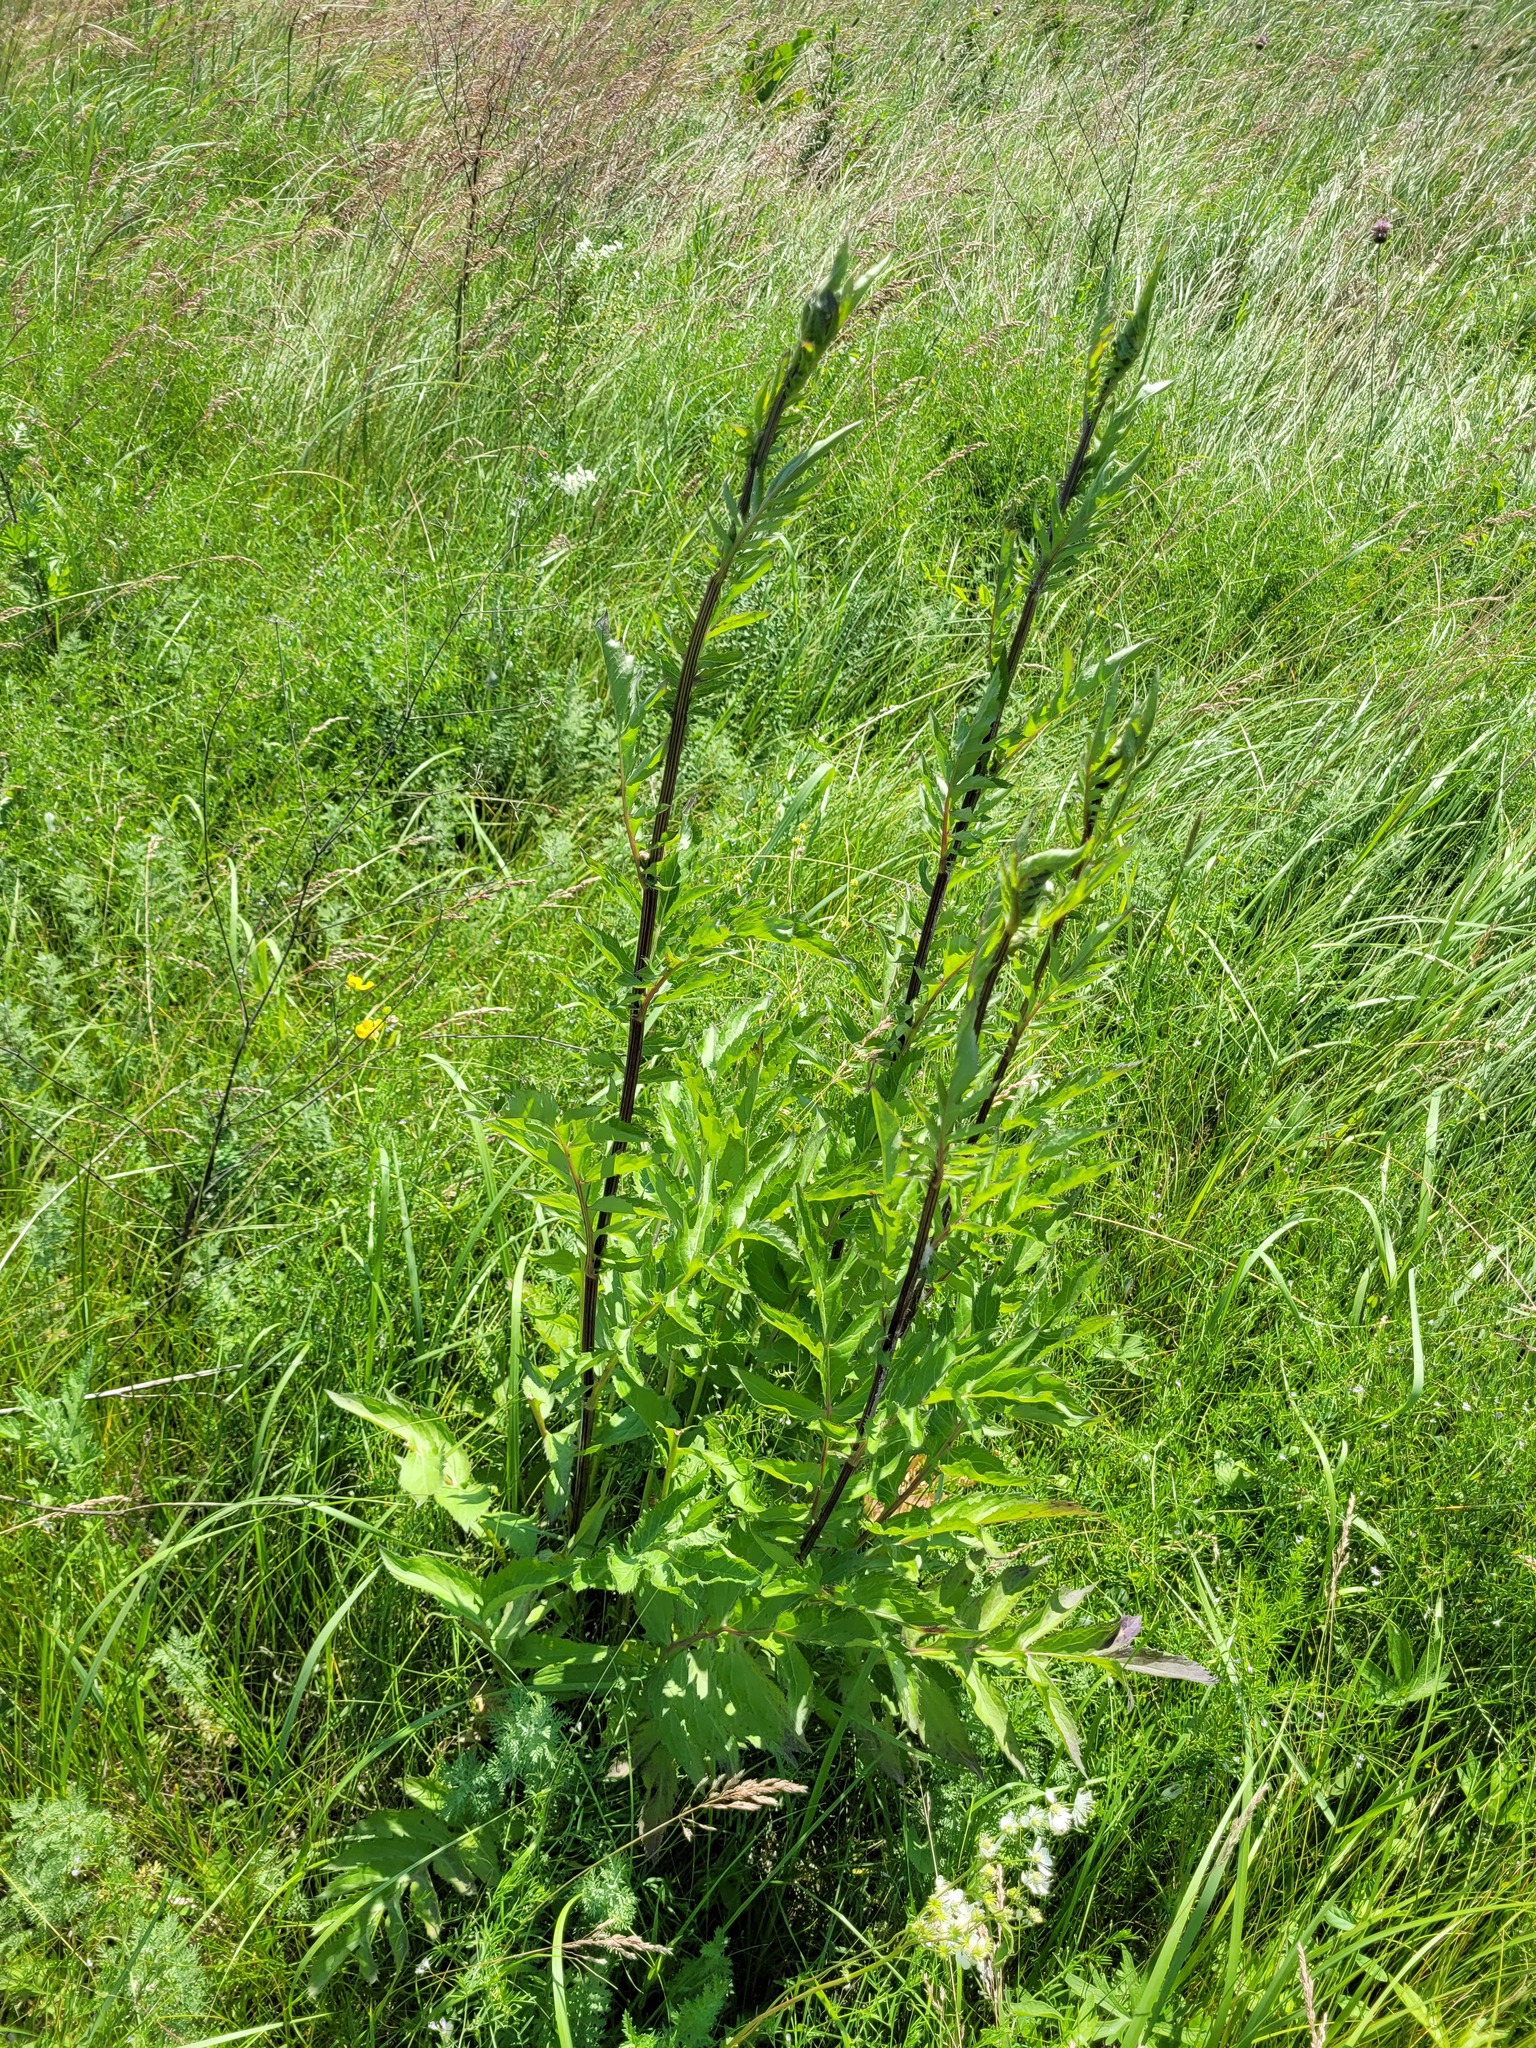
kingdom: Plantae
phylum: Tracheophyta
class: Magnoliopsida
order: Asterales
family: Asteraceae
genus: Serratula
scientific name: Serratula coronata
